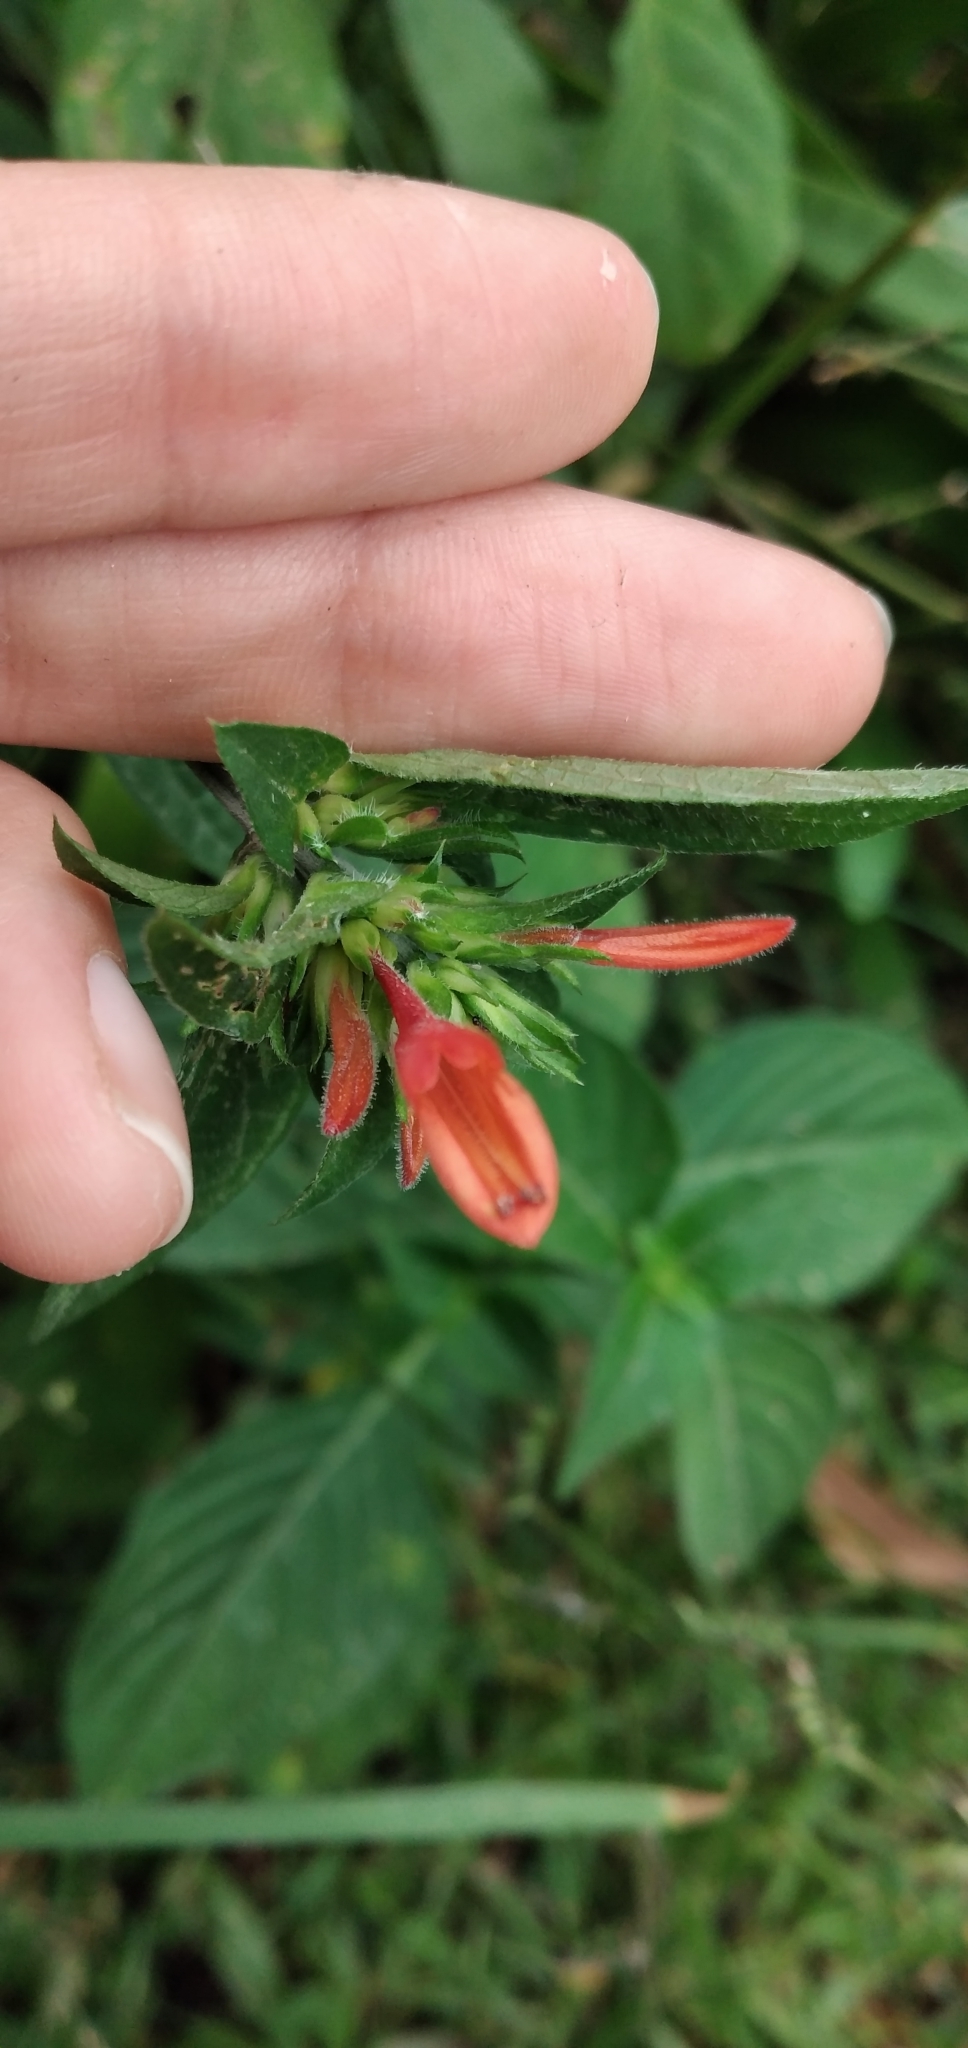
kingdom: Plantae
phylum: Tracheophyta
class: Magnoliopsida
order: Lamiales
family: Acanthaceae
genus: Dicliptera
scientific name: Dicliptera squarrosa
